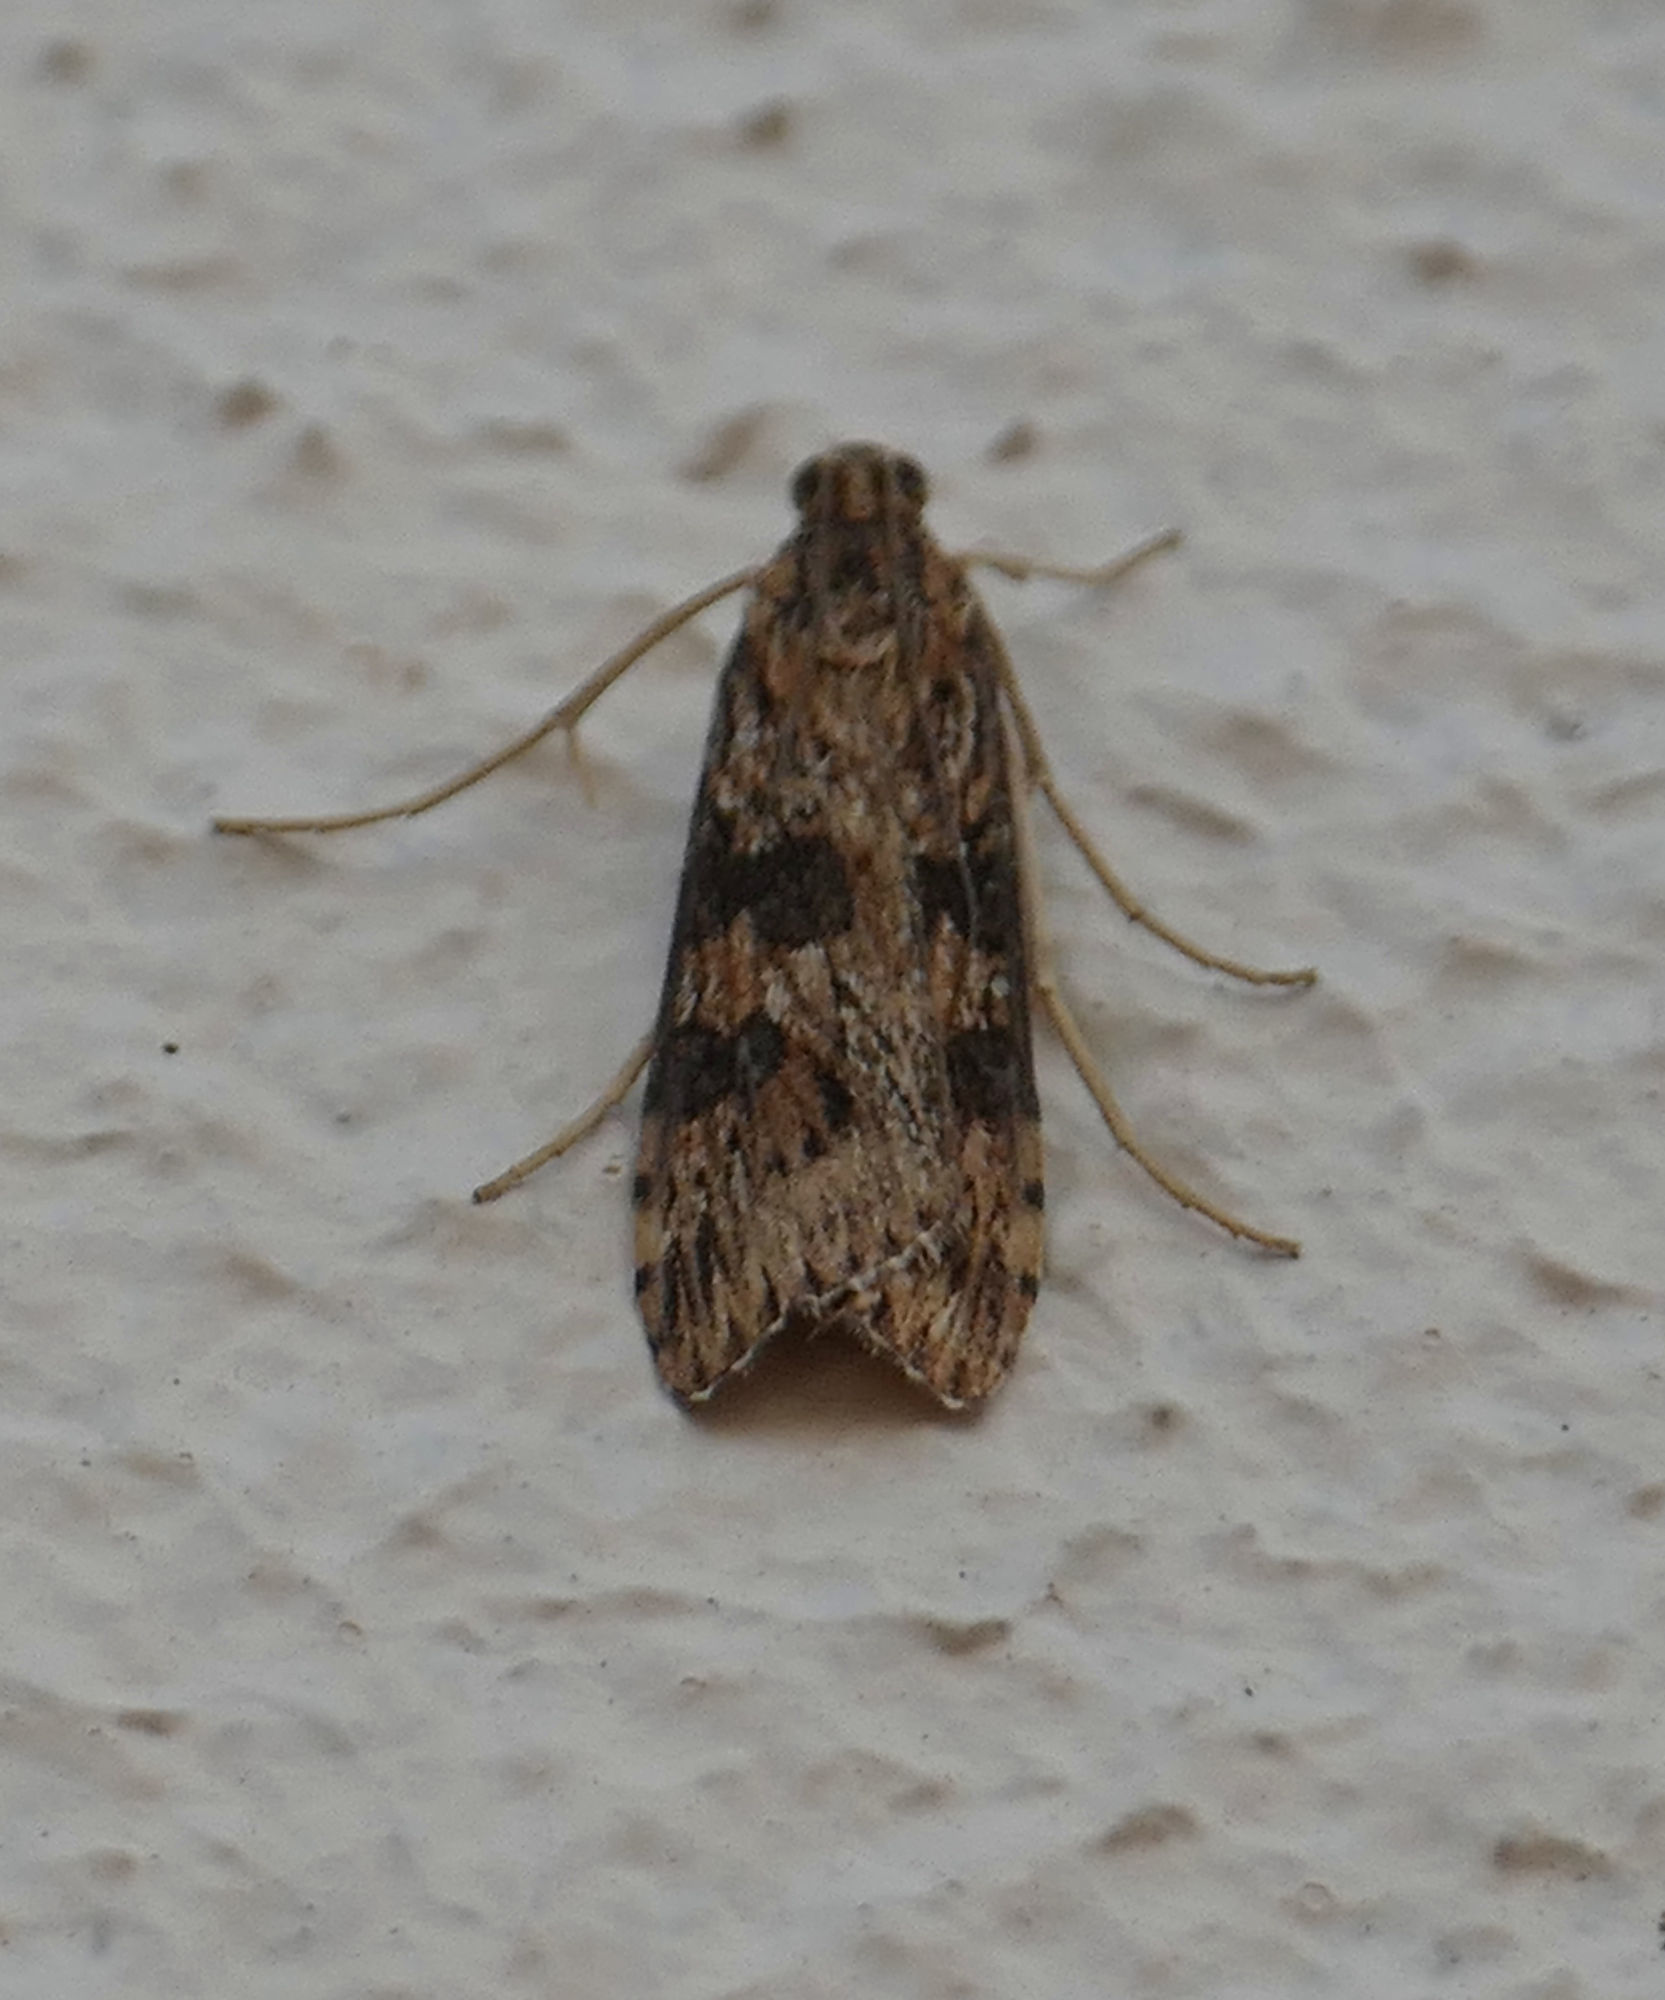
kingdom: Animalia
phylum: Arthropoda
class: Insecta
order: Lepidoptera
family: Crambidae
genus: Nomophila
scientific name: Nomophila nearctica
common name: American rush veneer
